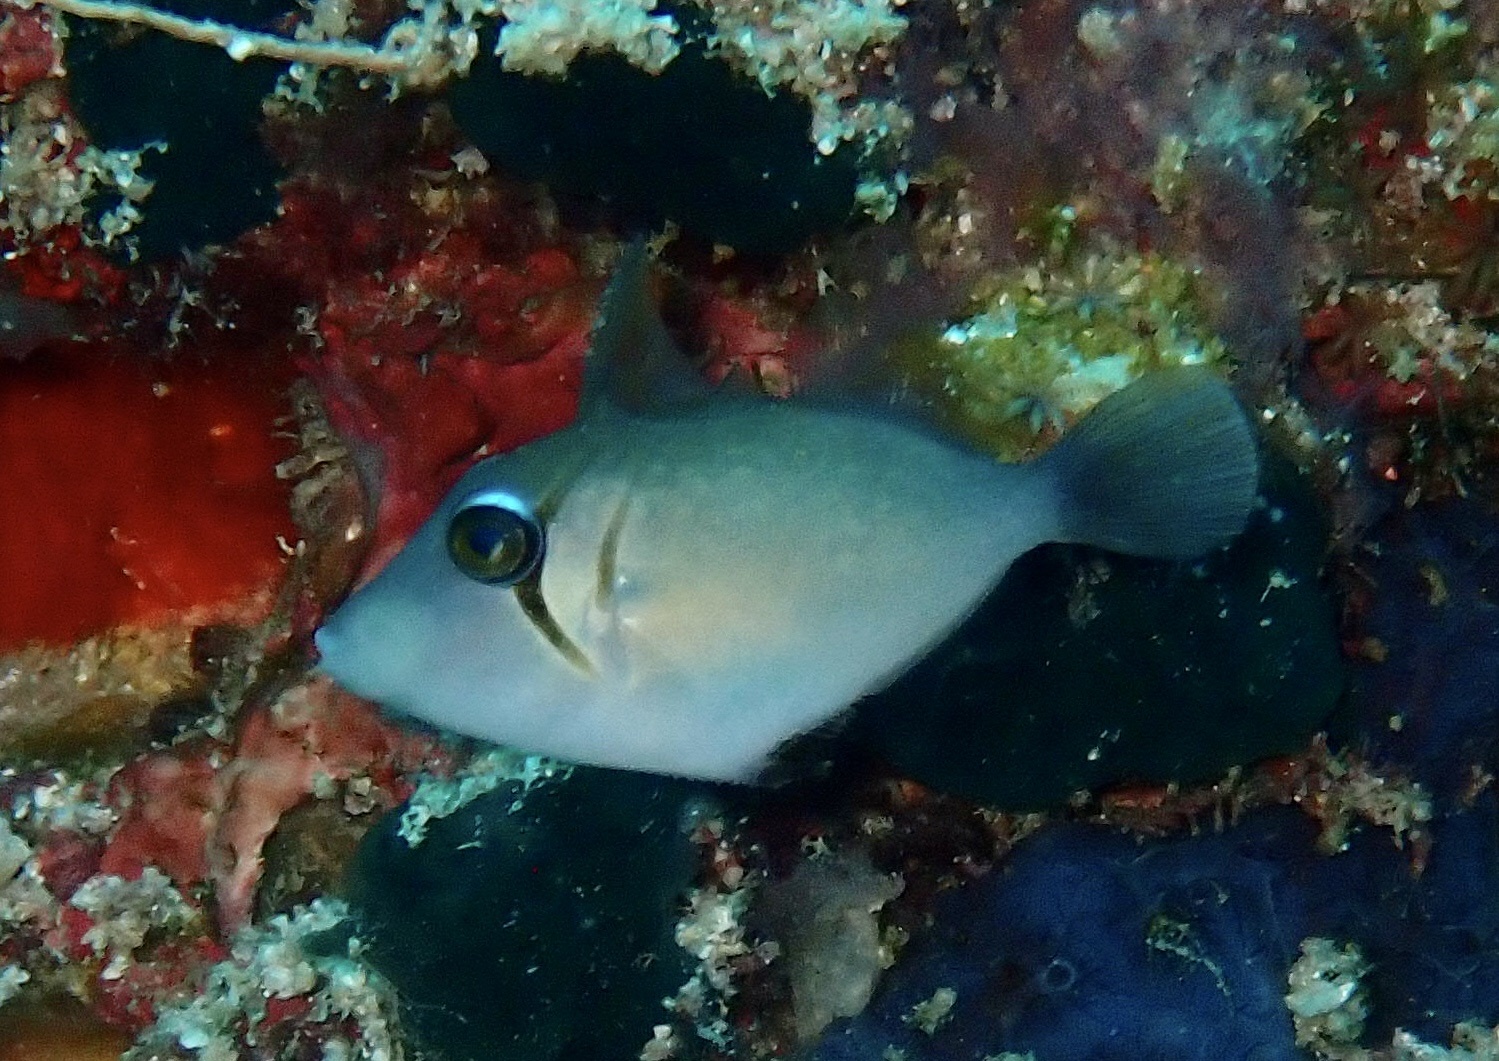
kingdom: Animalia
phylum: Chordata
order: Tetraodontiformes
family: Balistidae
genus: Sufflamen
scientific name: Sufflamen bursa
